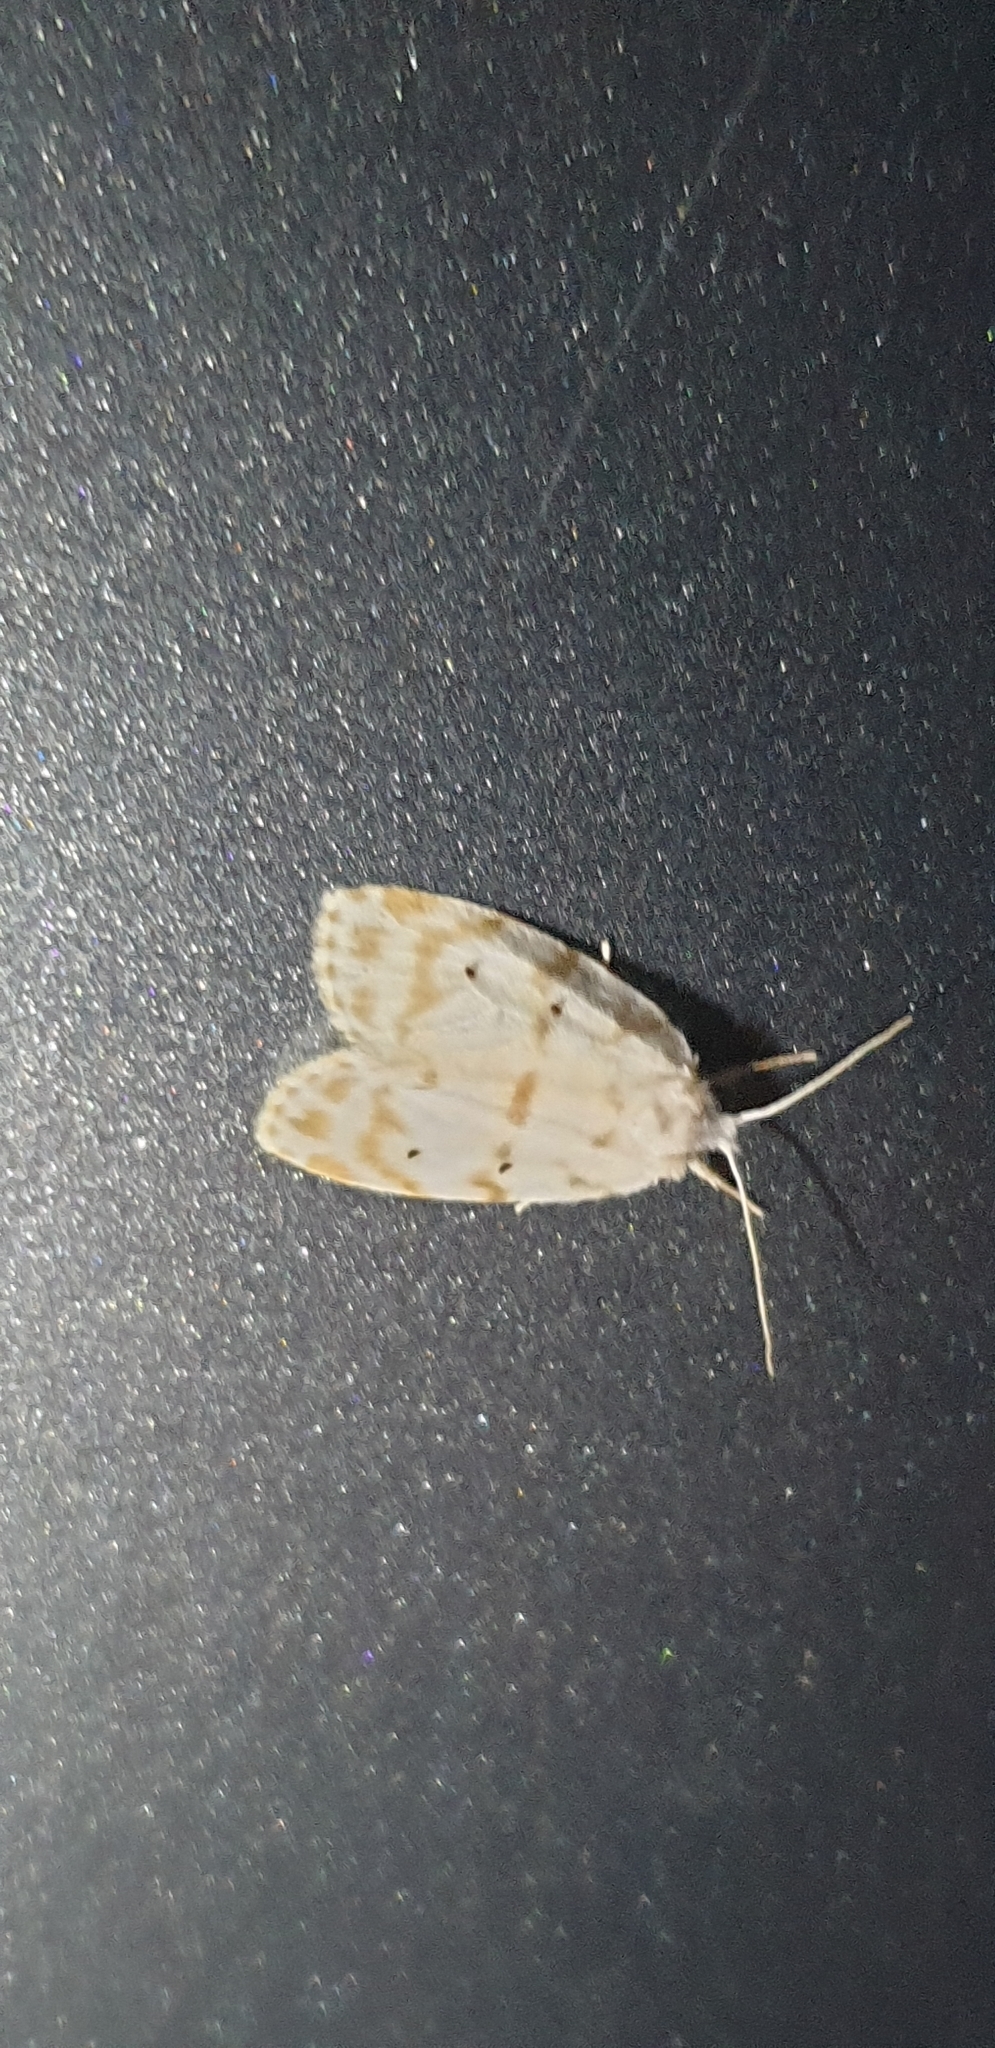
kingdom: Animalia
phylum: Arthropoda
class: Insecta
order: Lepidoptera
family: Erebidae
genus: Schistophleps
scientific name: Schistophleps albida
